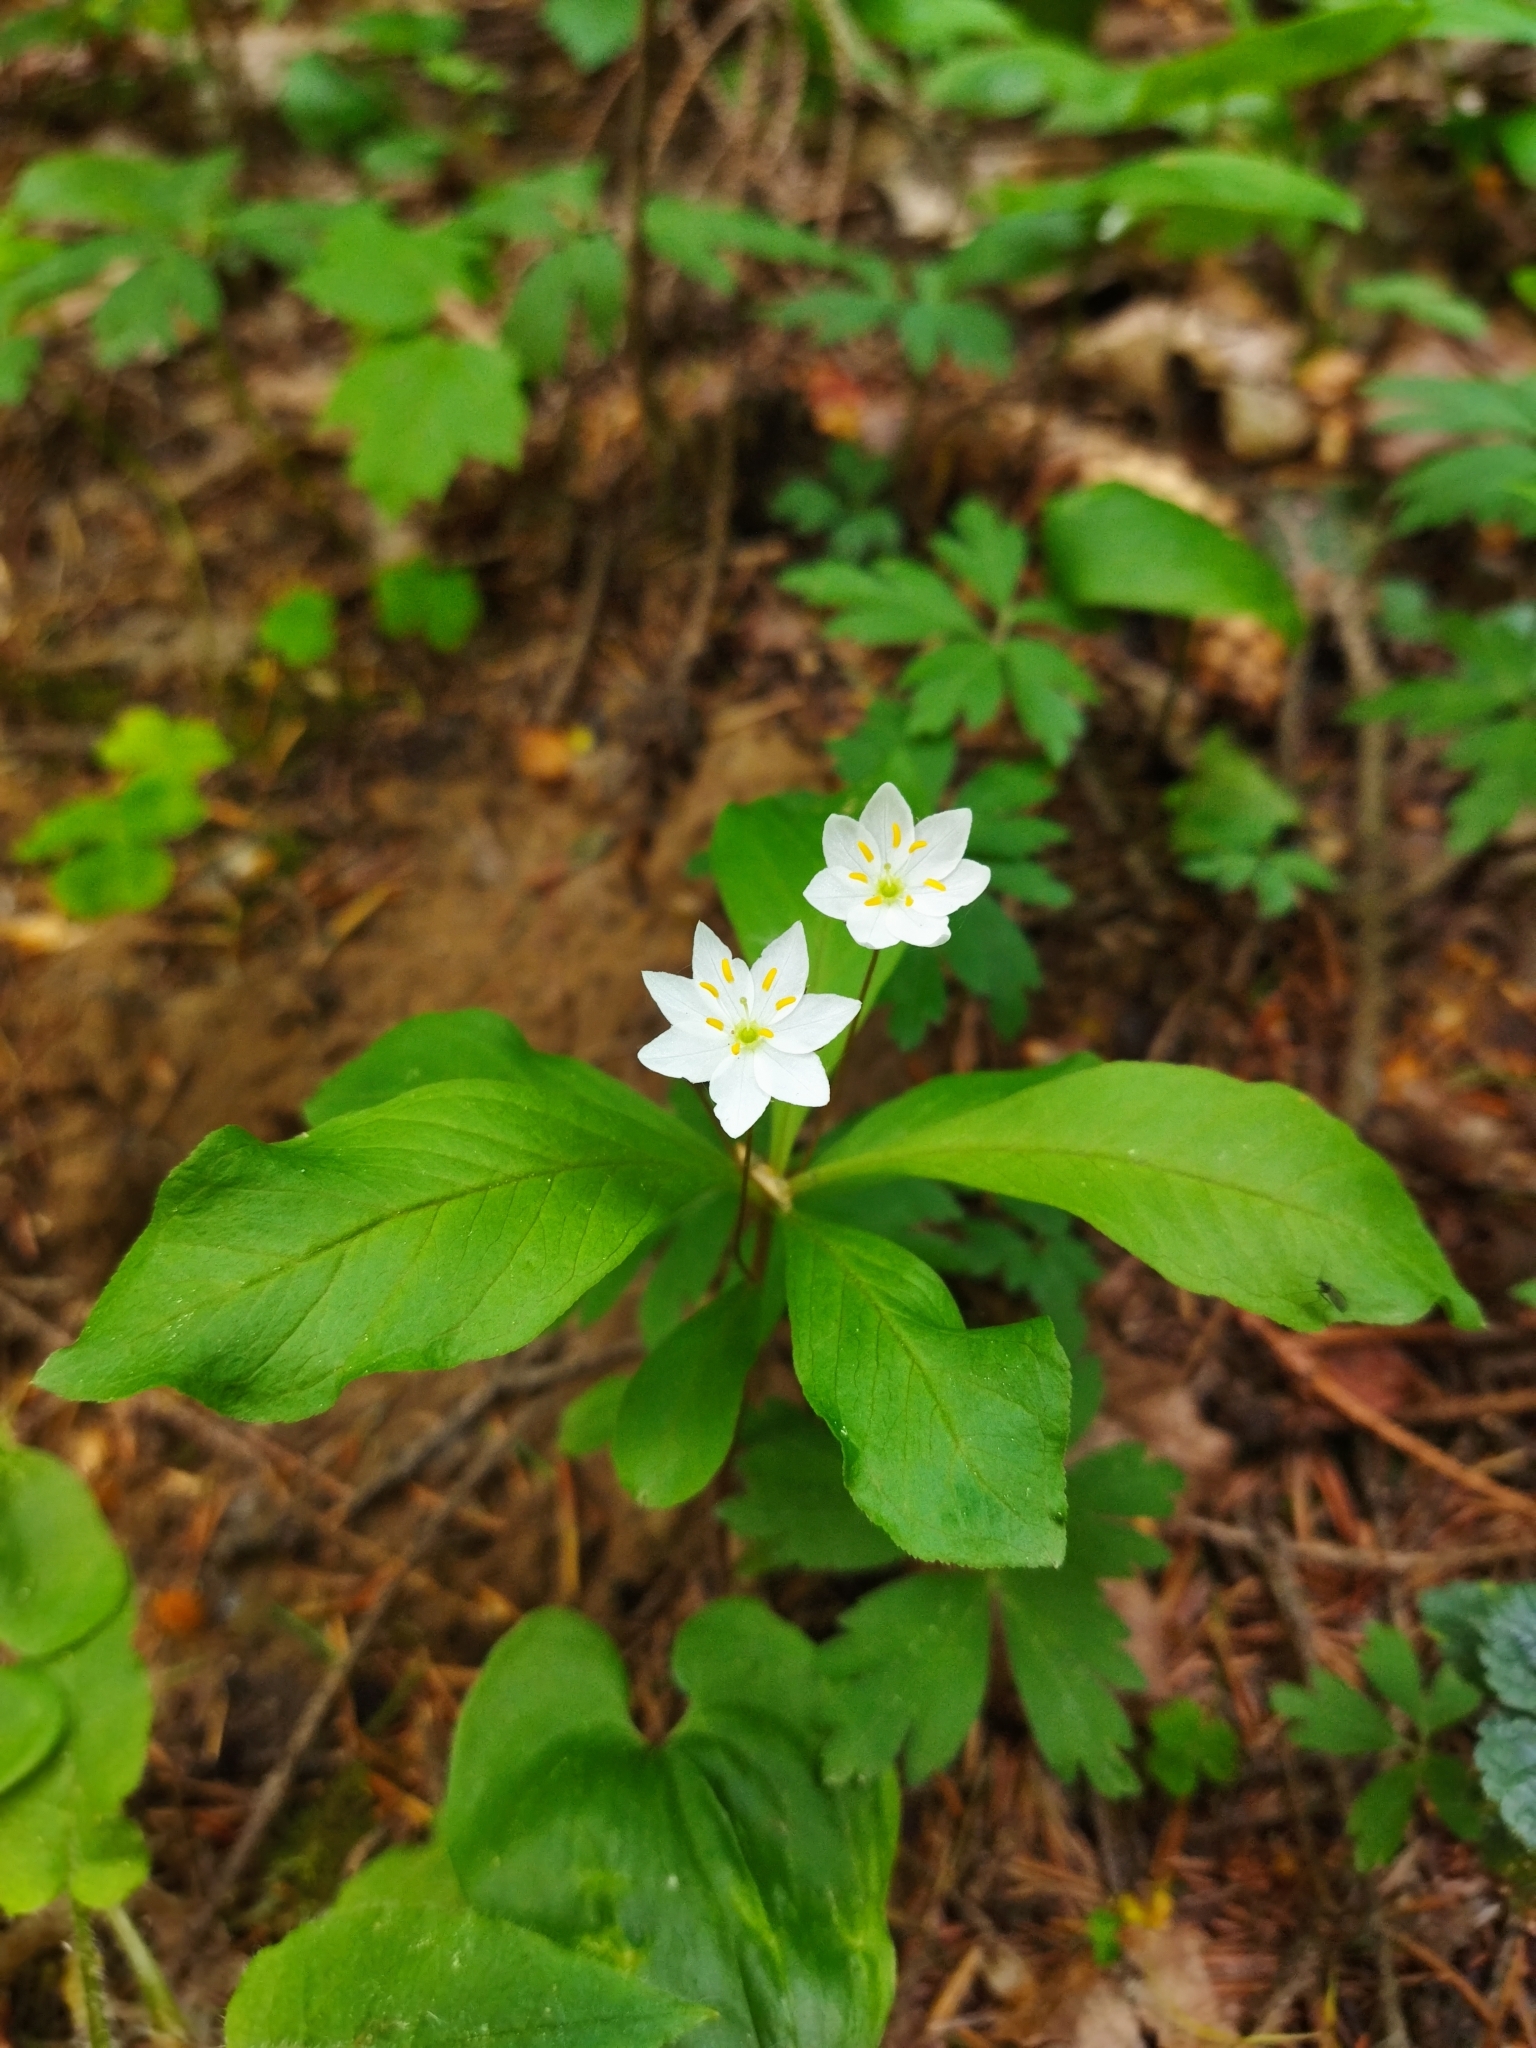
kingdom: Plantae
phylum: Tracheophyta
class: Magnoliopsida
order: Ericales
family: Primulaceae
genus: Lysimachia
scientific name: Lysimachia europaea
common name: Arctic starflower
